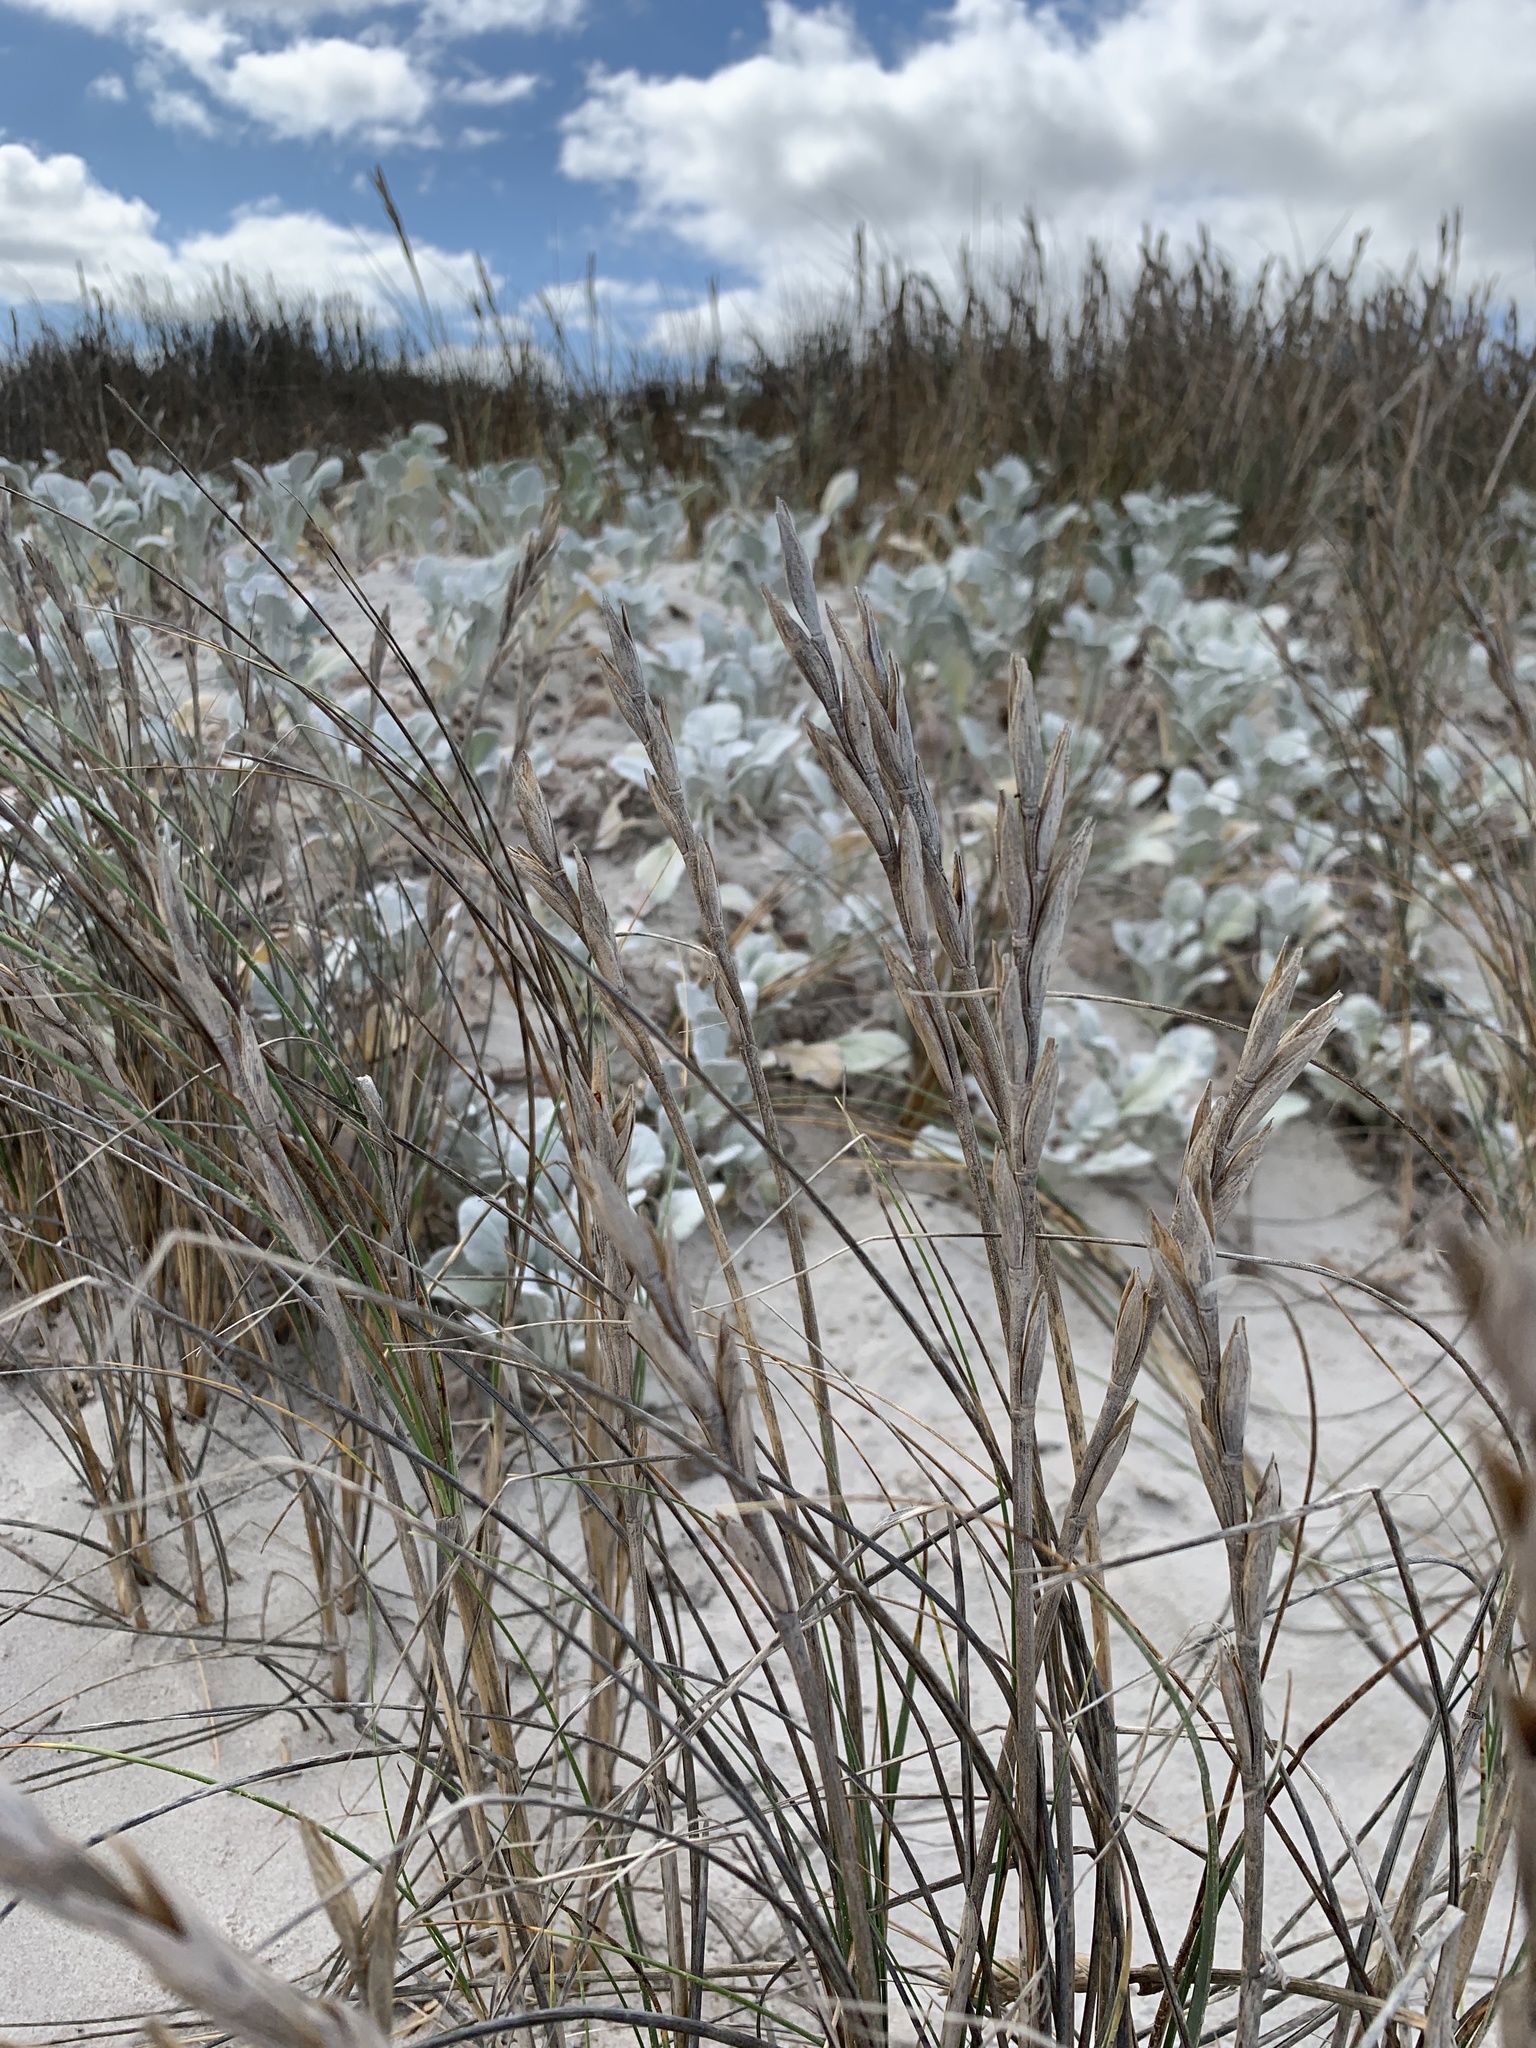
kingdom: Plantae
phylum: Tracheophyta
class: Liliopsida
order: Poales
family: Poaceae
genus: Thinopyrum
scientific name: Thinopyrum distichum
